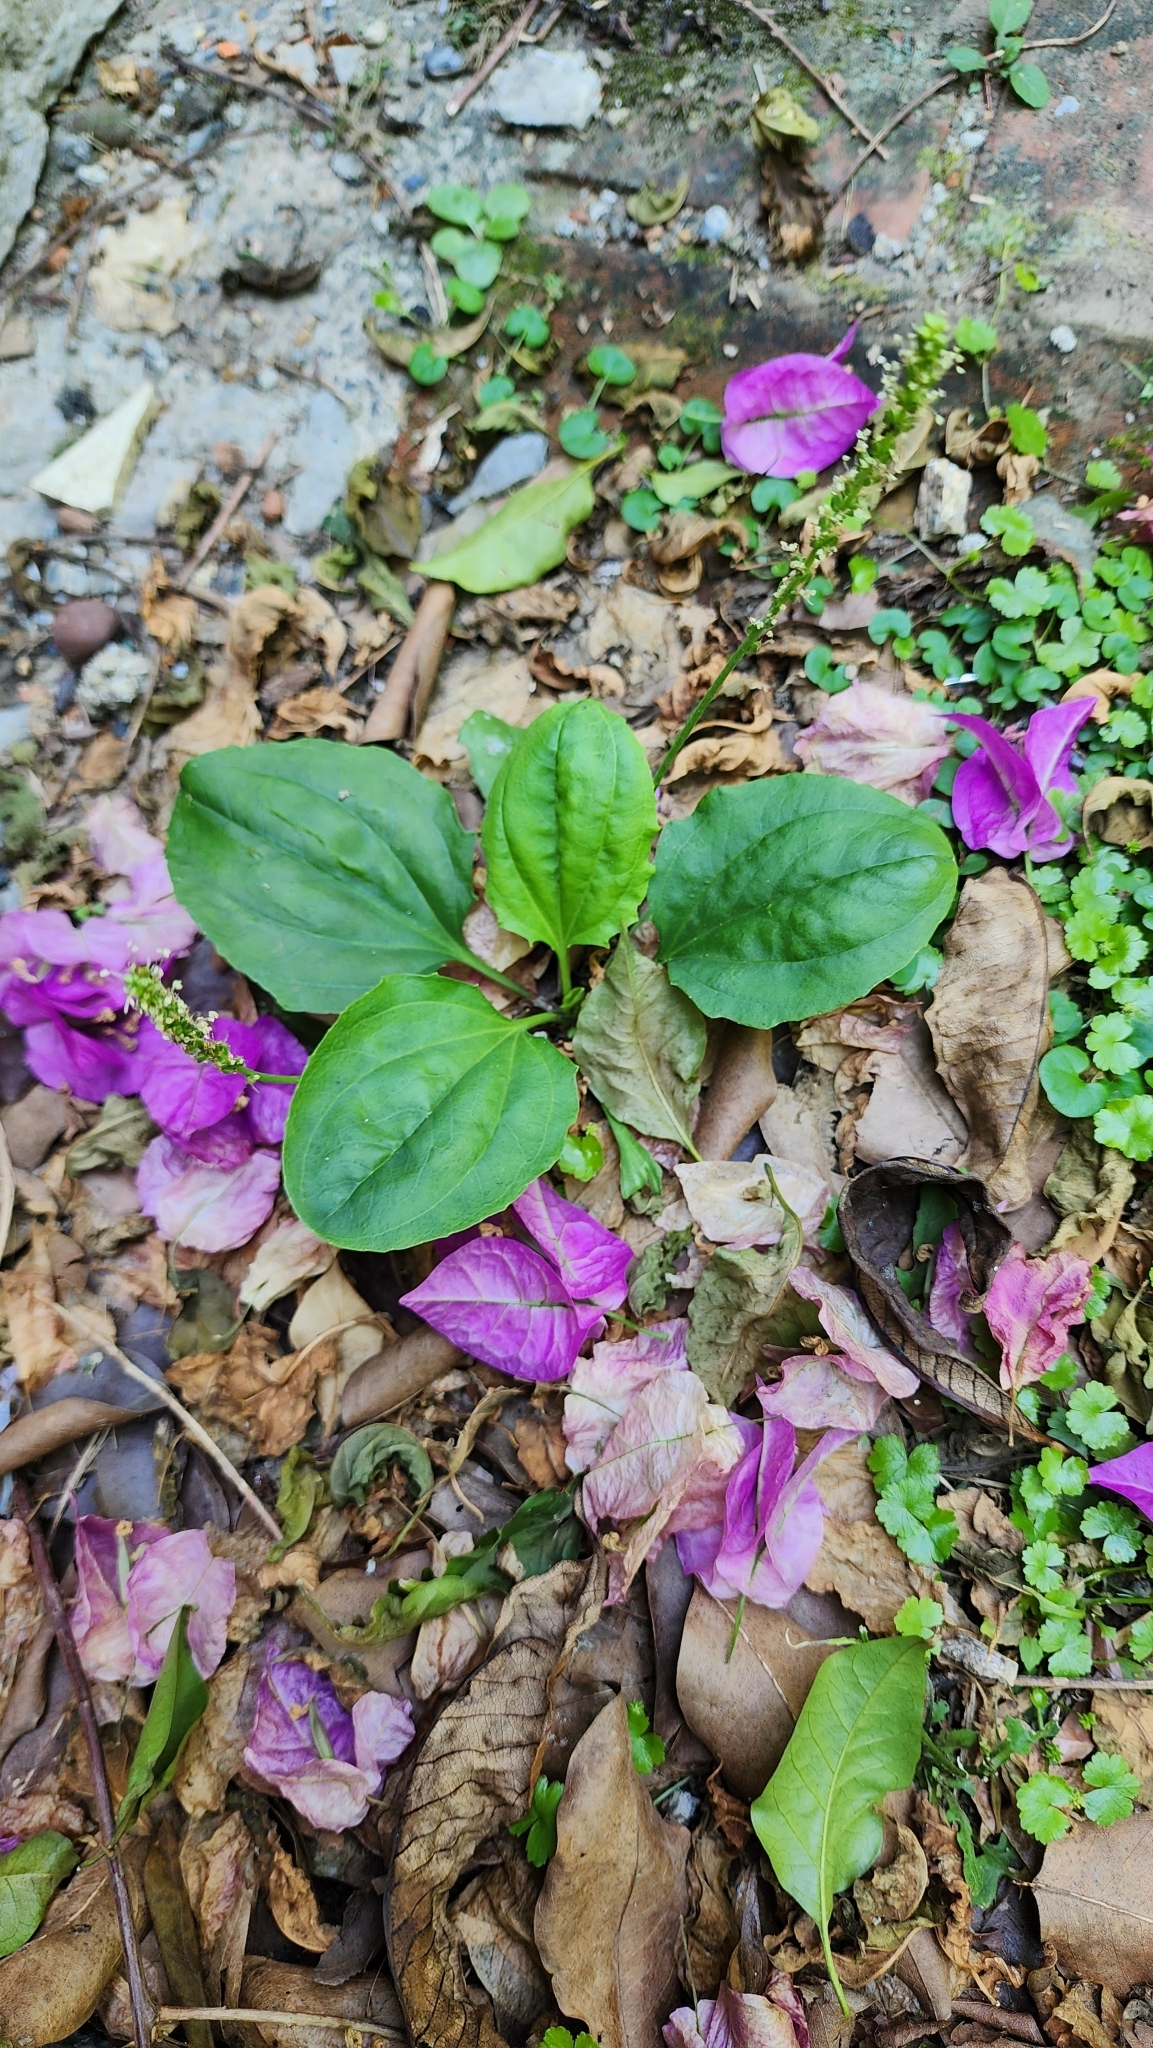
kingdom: Plantae
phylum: Tracheophyta
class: Magnoliopsida
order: Lamiales
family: Plantaginaceae
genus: Plantago
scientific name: Plantago asiatica
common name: Psyllium
